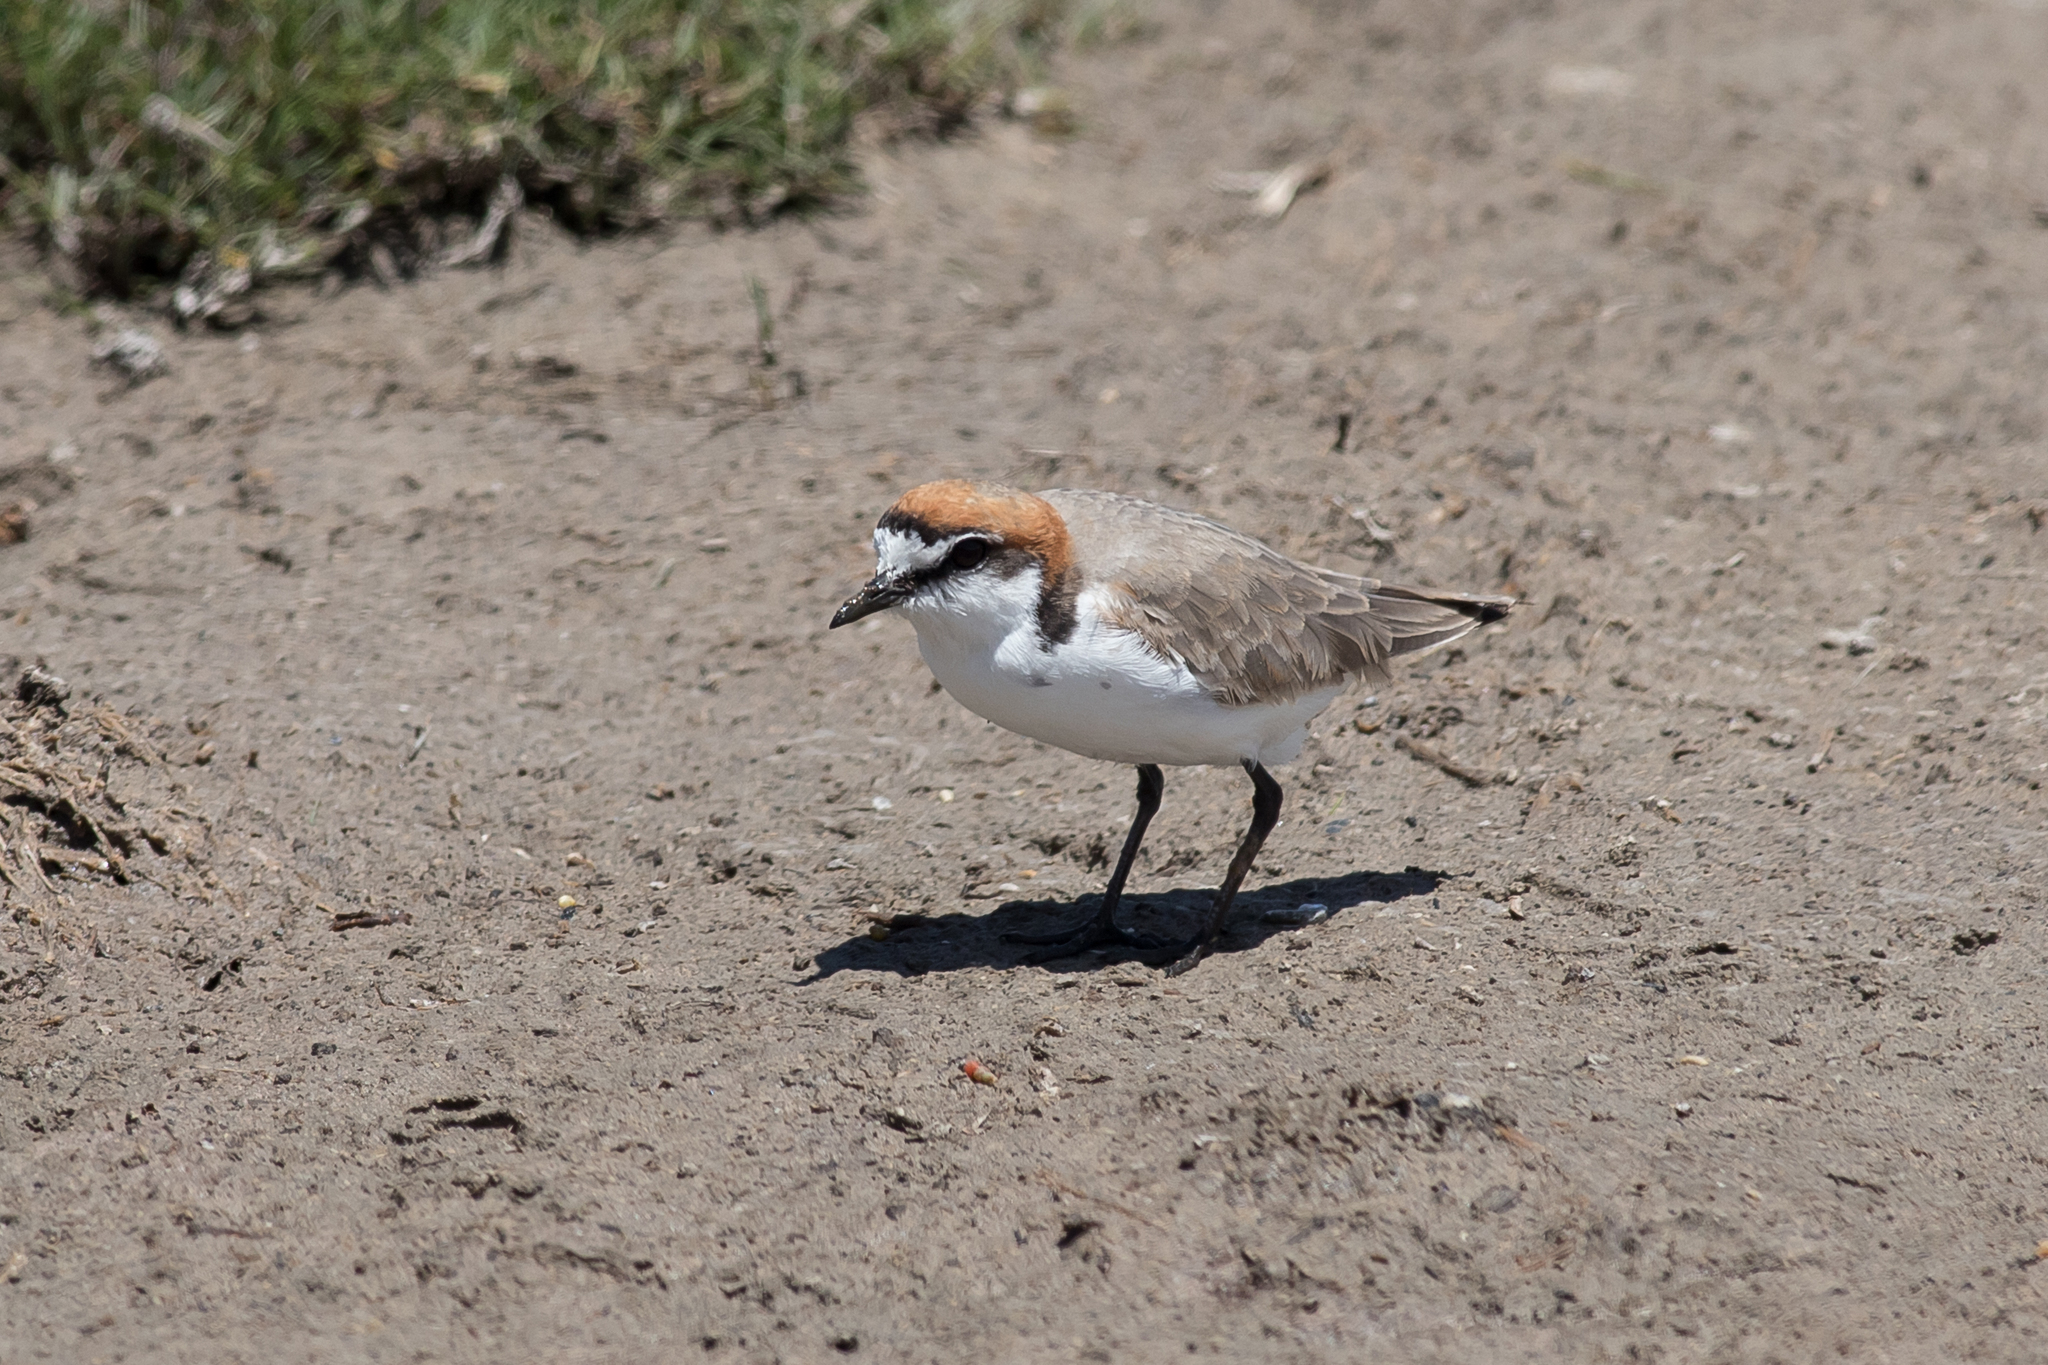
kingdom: Animalia
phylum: Chordata
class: Aves
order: Charadriiformes
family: Charadriidae
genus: Anarhynchus
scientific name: Anarhynchus
